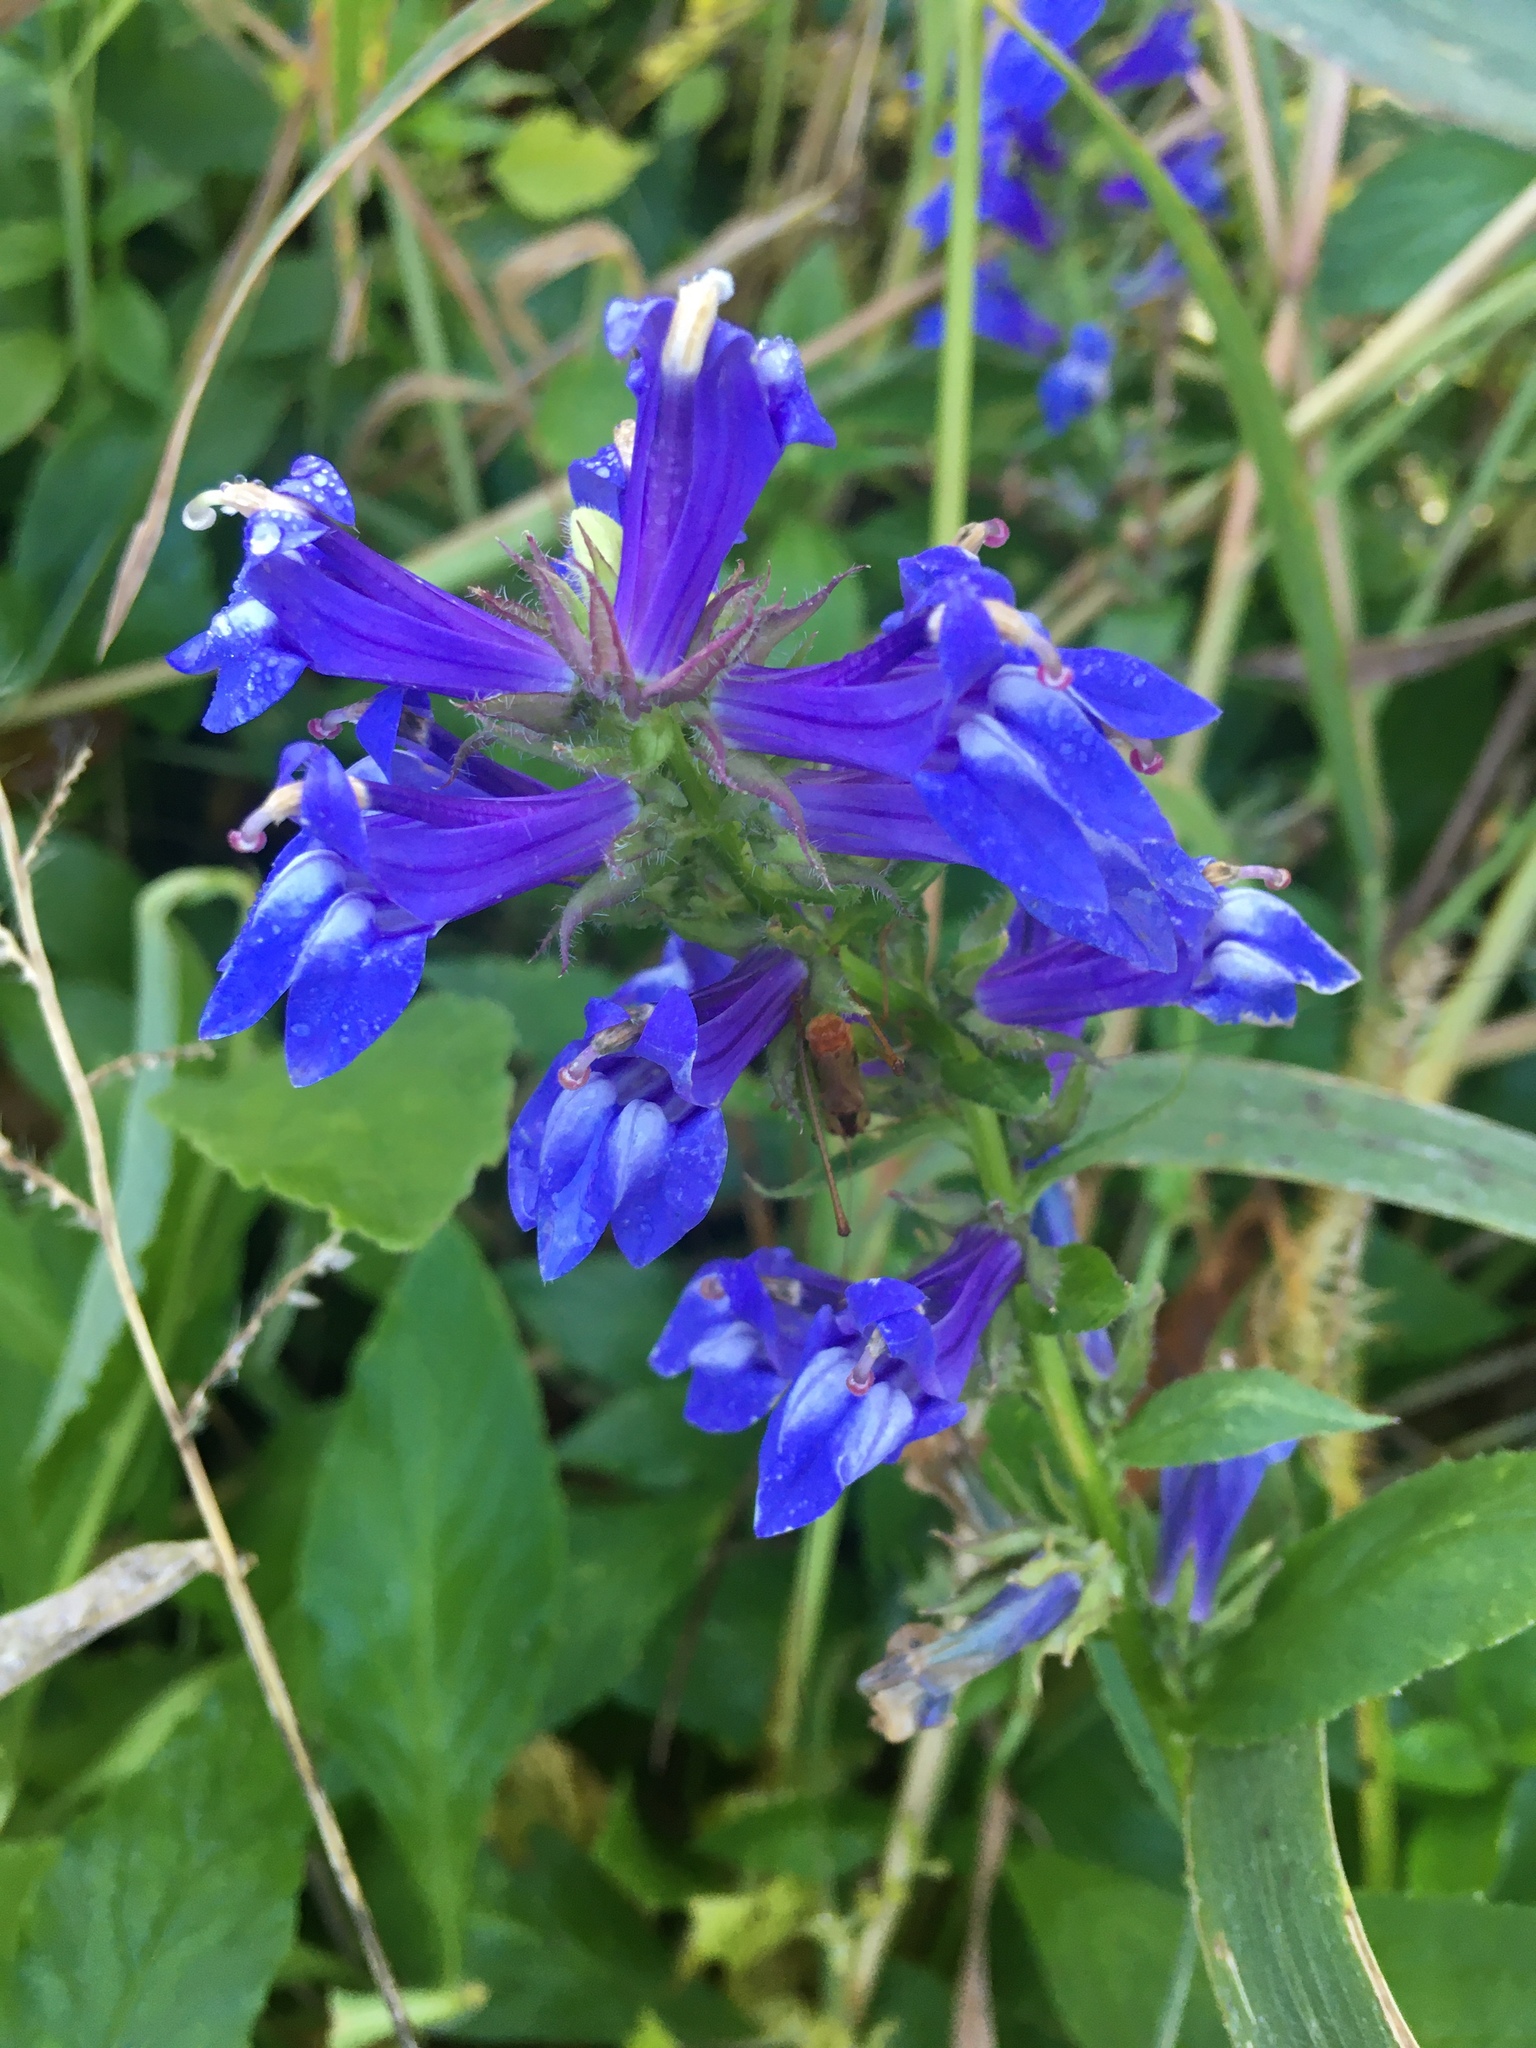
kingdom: Plantae
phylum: Tracheophyta
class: Magnoliopsida
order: Asterales
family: Campanulaceae
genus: Lobelia
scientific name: Lobelia siphilitica
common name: Great lobelia
